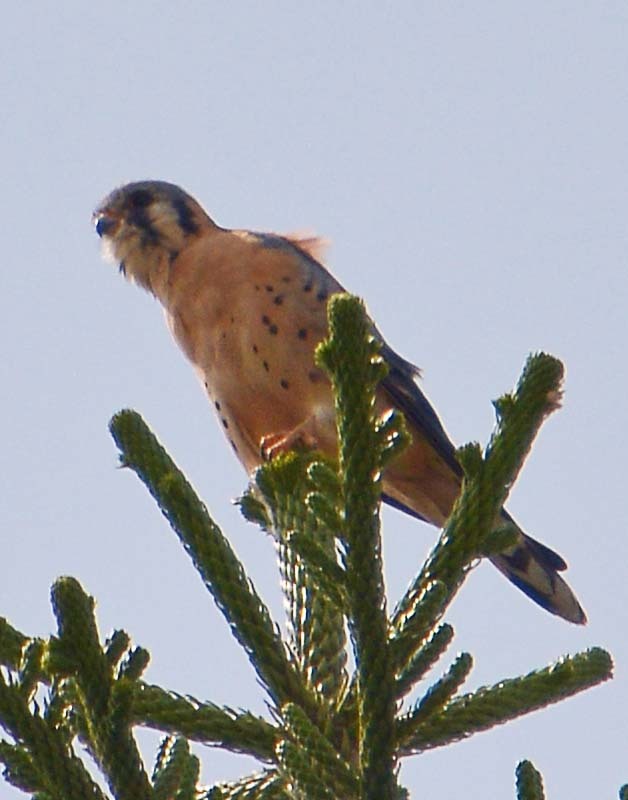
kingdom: Animalia
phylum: Chordata
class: Aves
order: Falconiformes
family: Falconidae
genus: Falco
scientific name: Falco sparverius
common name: American kestrel
